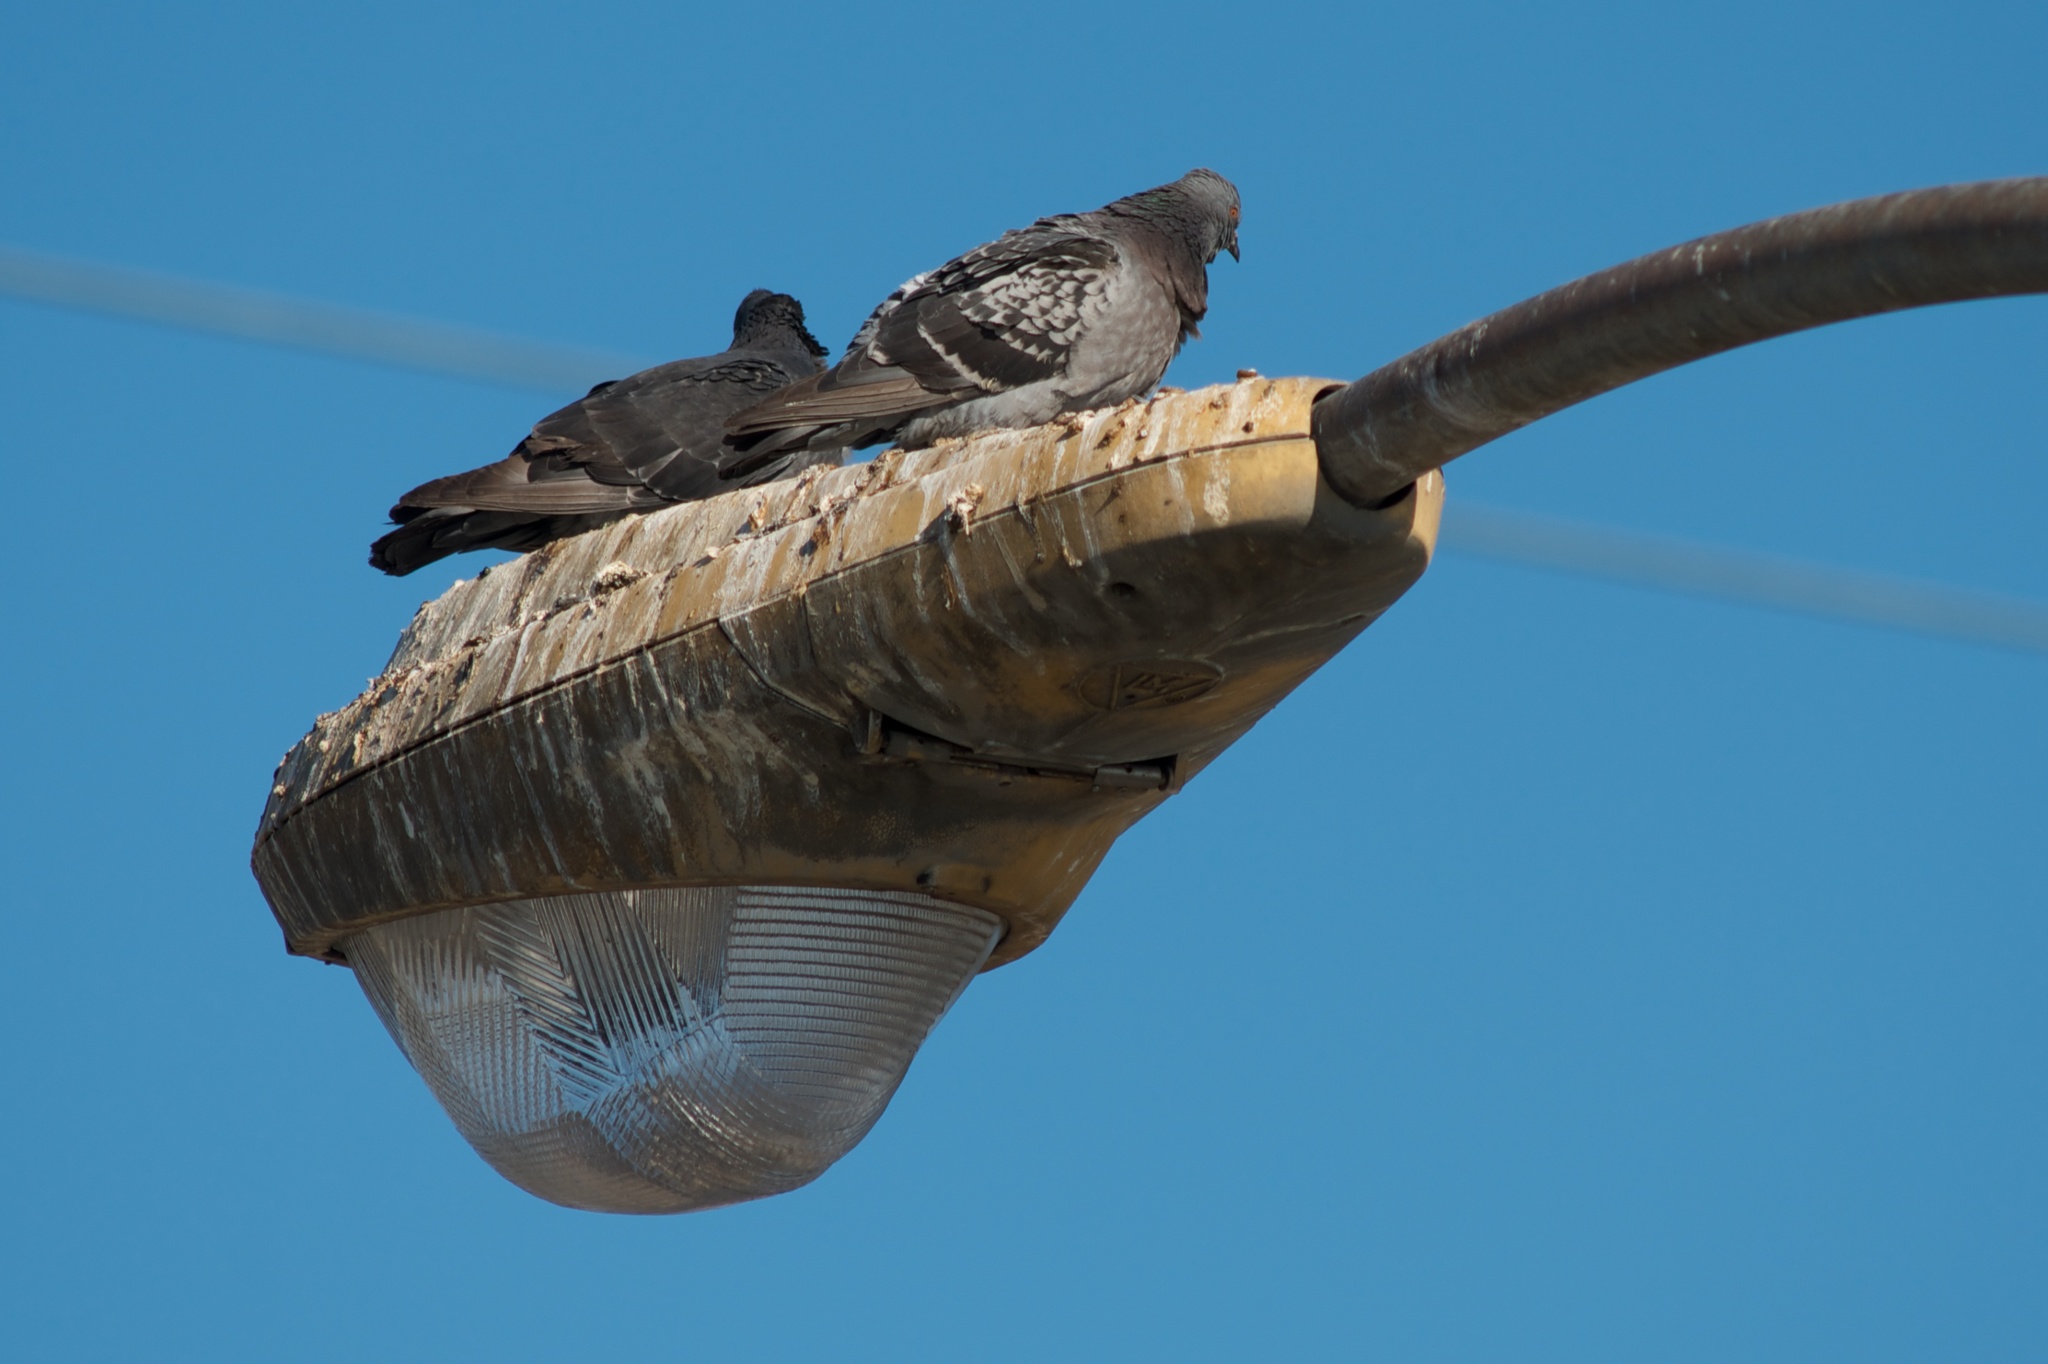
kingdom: Animalia
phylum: Chordata
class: Aves
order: Columbiformes
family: Columbidae
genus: Columba
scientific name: Columba livia
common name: Rock pigeon
